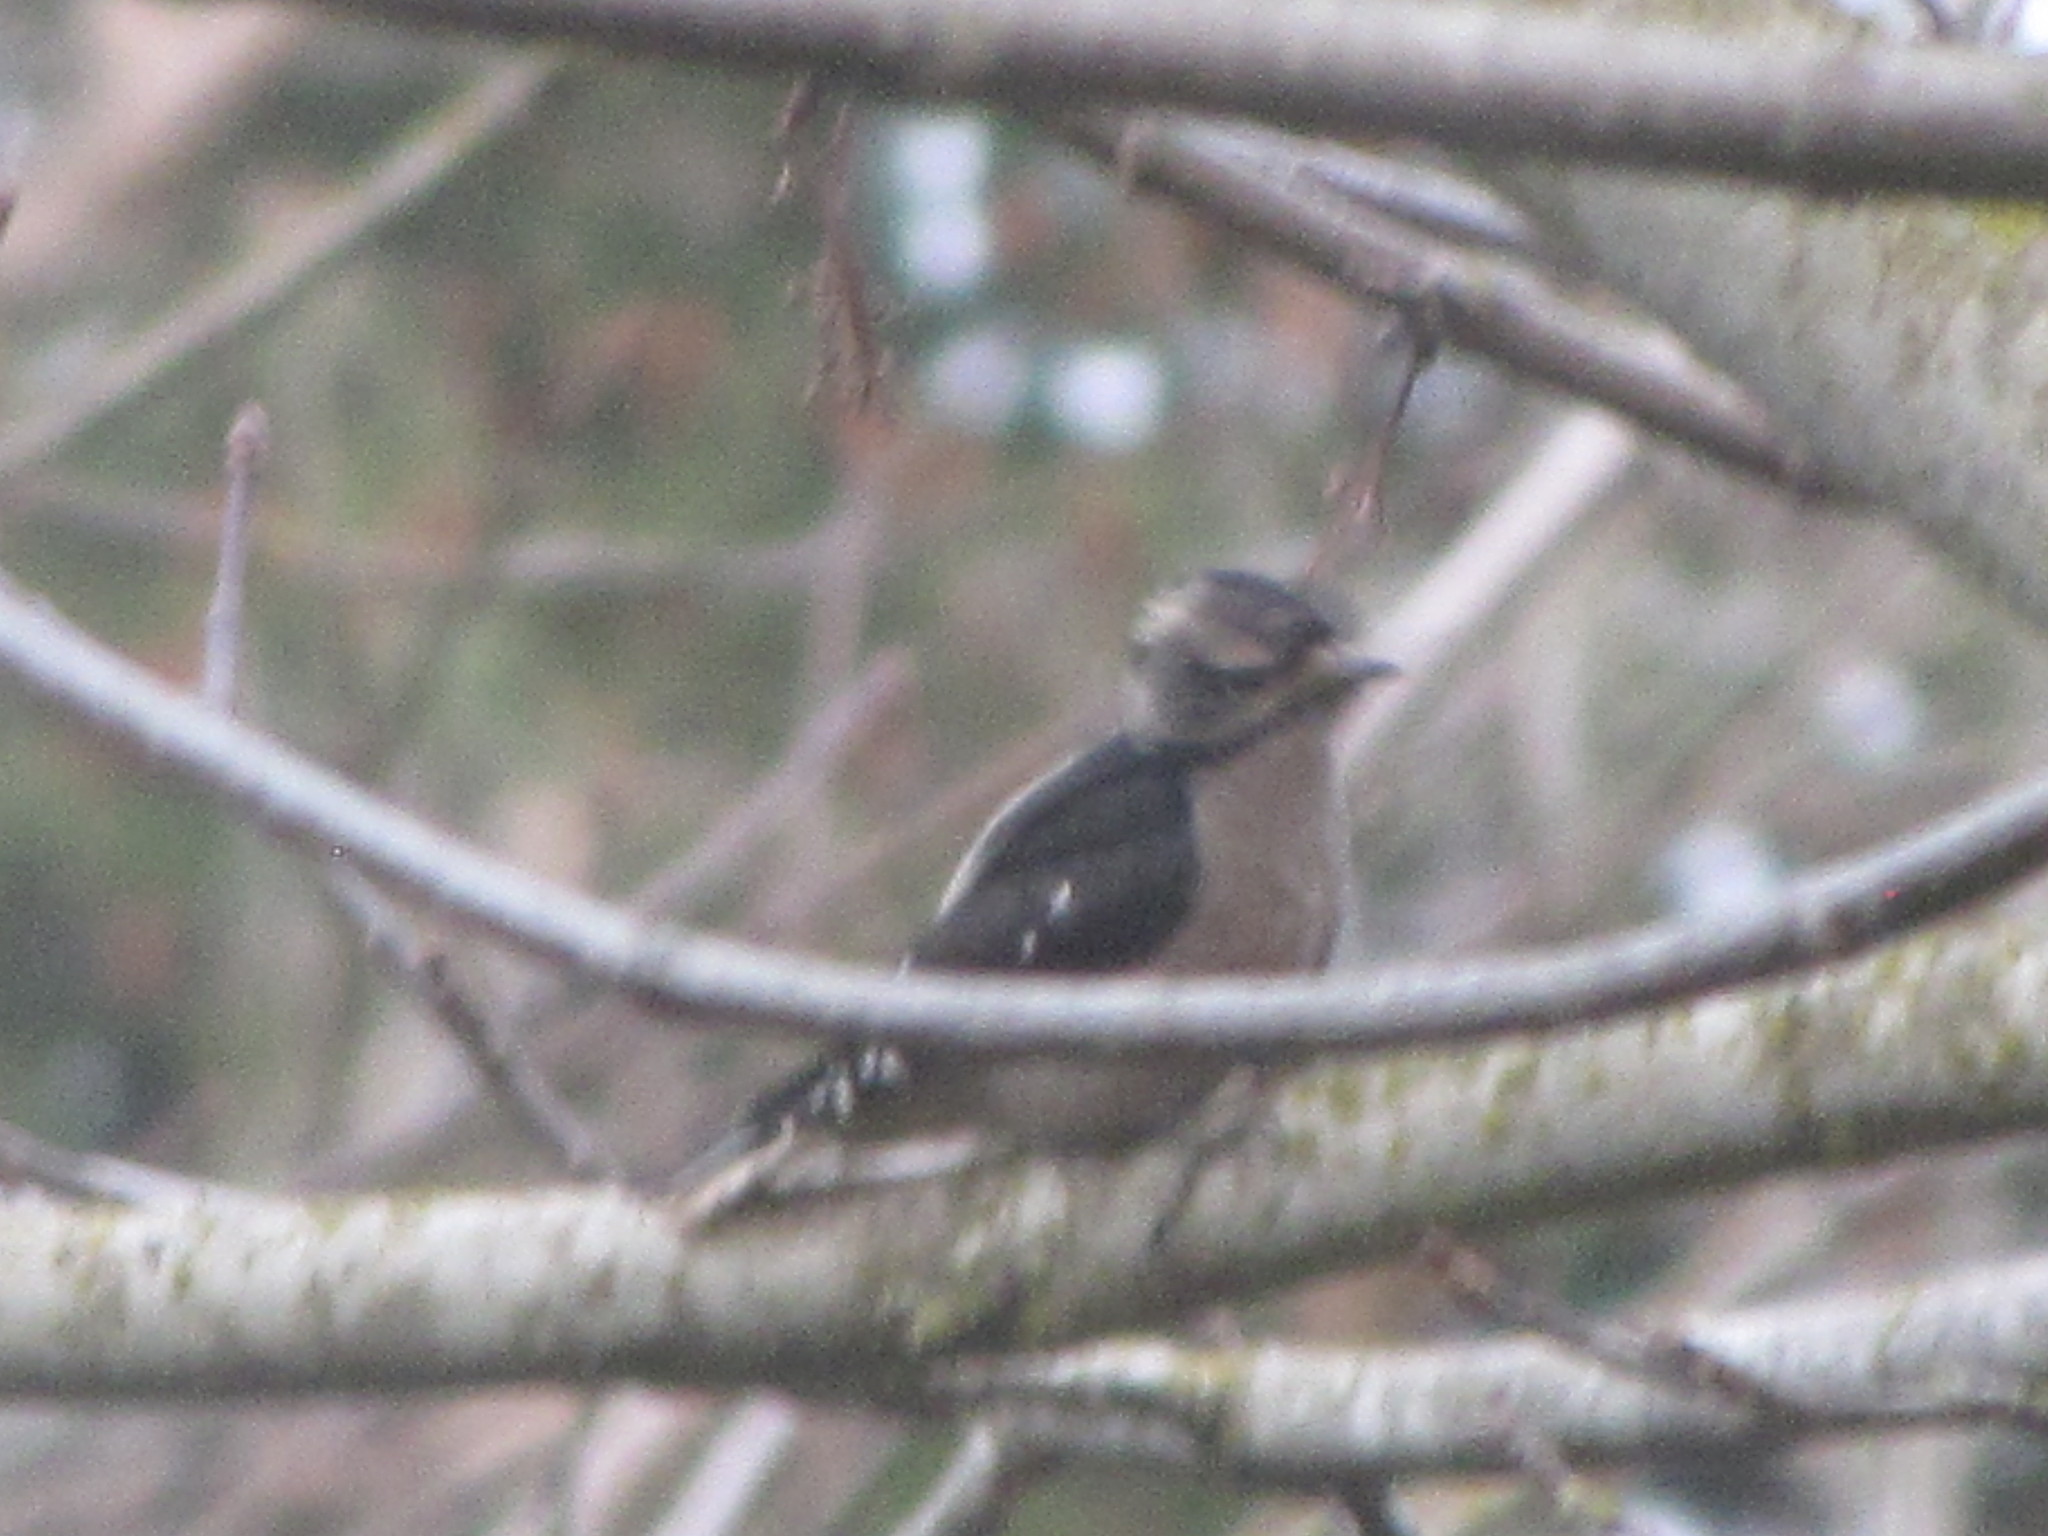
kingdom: Animalia
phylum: Chordata
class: Aves
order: Piciformes
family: Picidae
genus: Dryobates
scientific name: Dryobates pubescens
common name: Downy woodpecker
